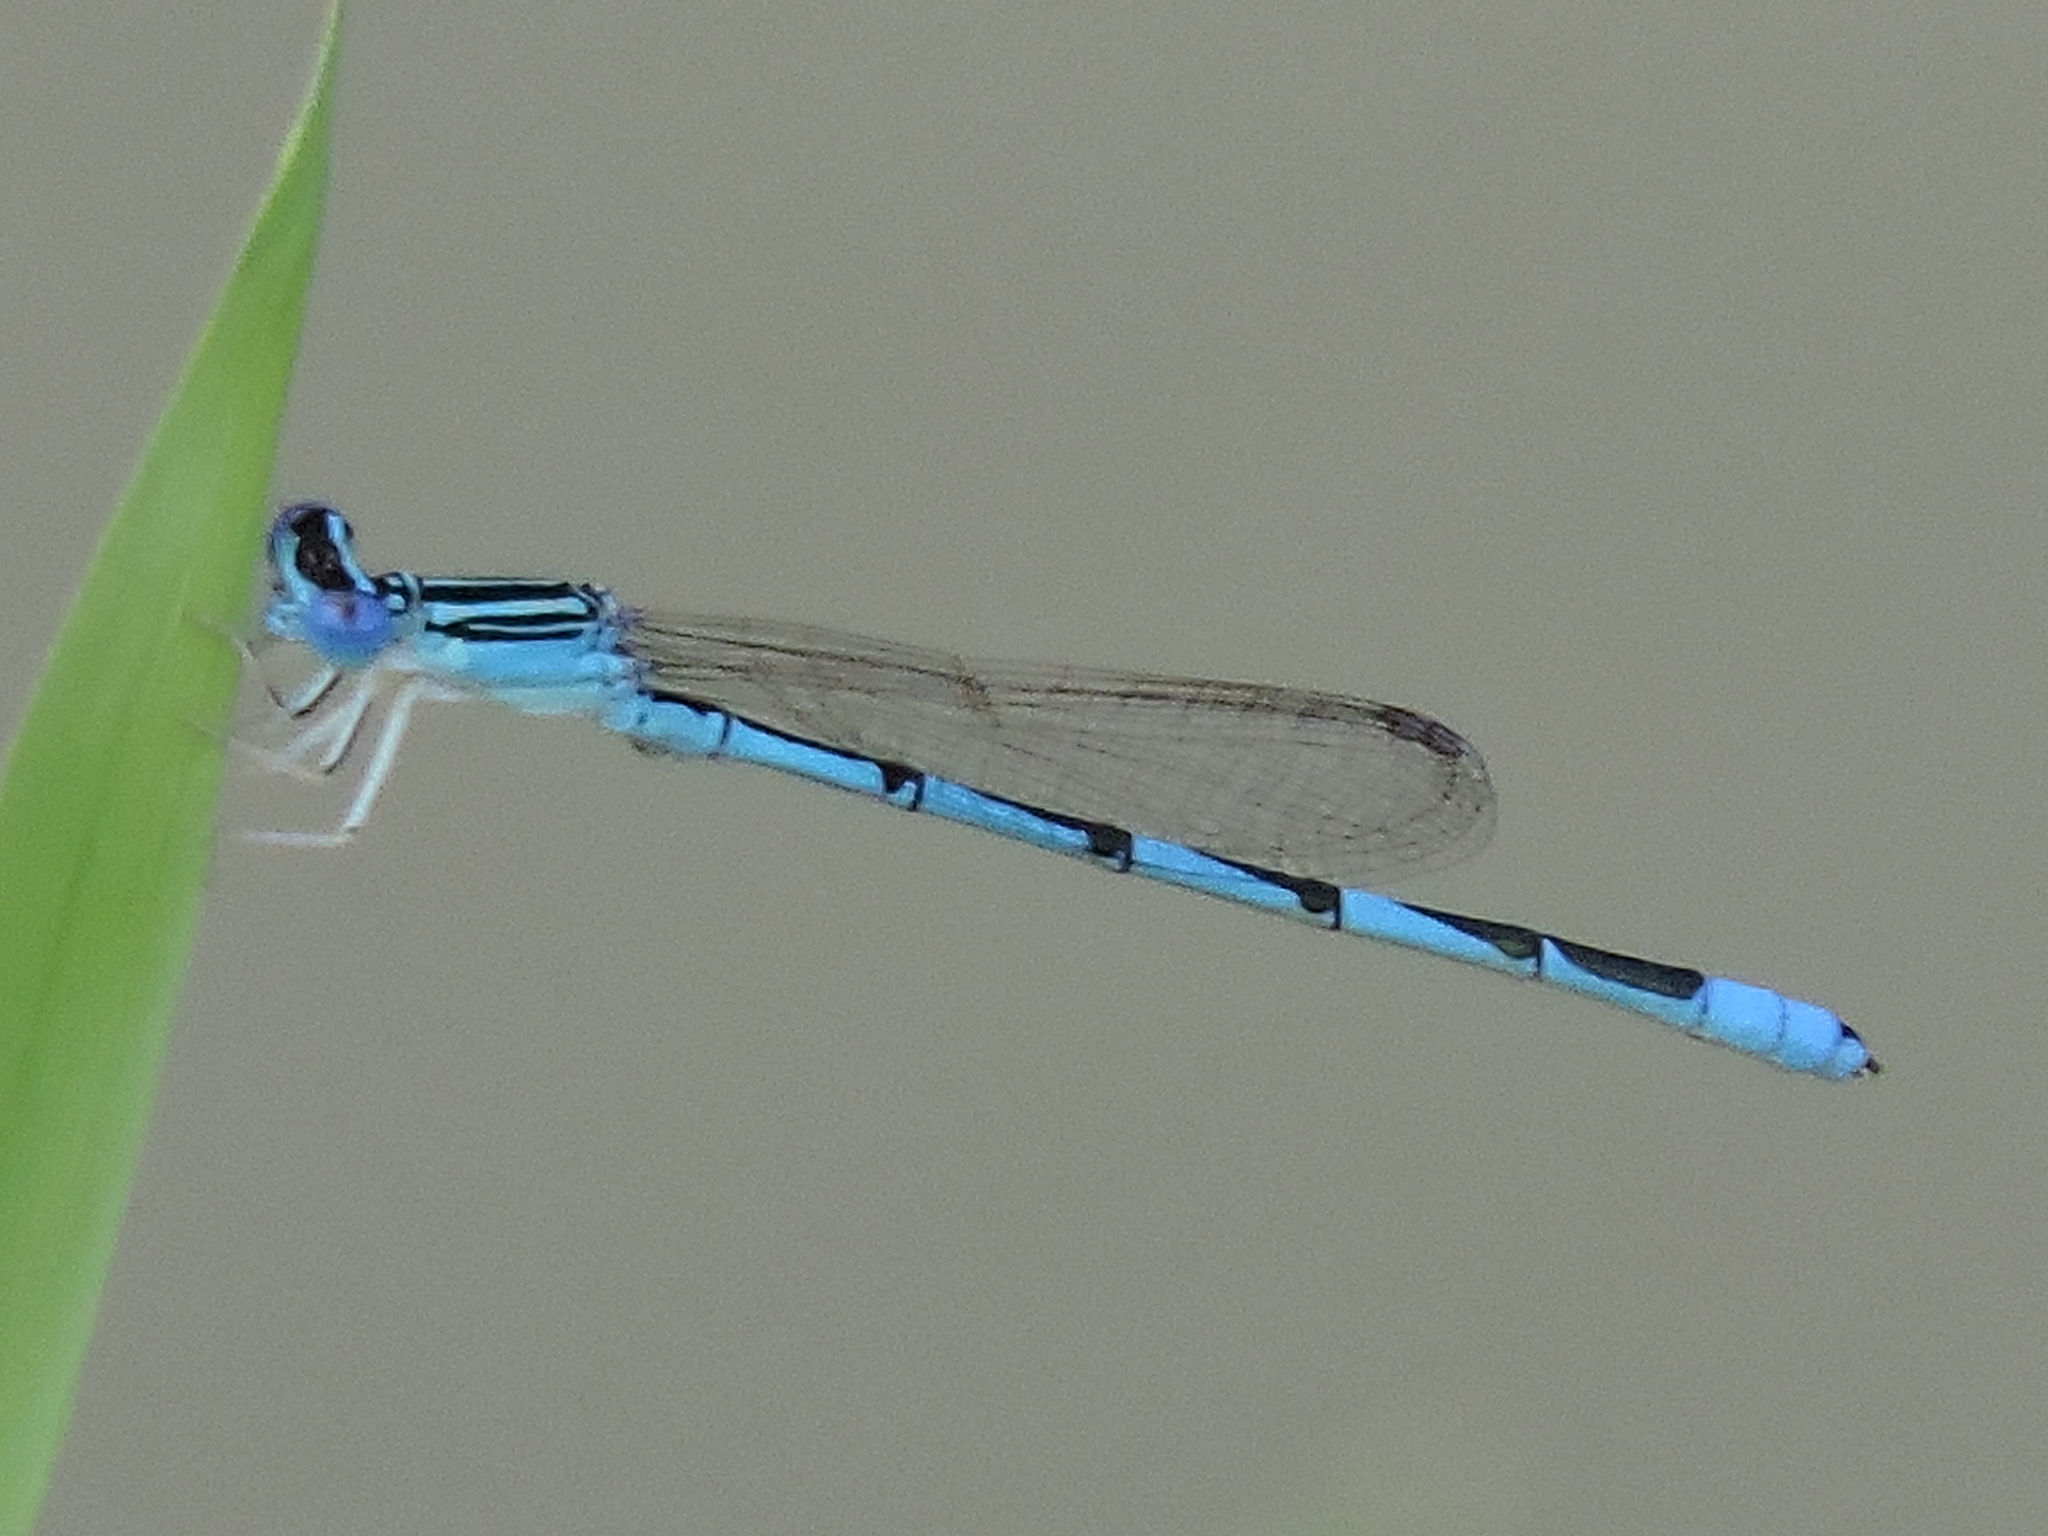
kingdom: Animalia
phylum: Arthropoda
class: Insecta
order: Odonata
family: Coenagrionidae
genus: Enallagma
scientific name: Enallagma basidens
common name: Double-striped bluet
